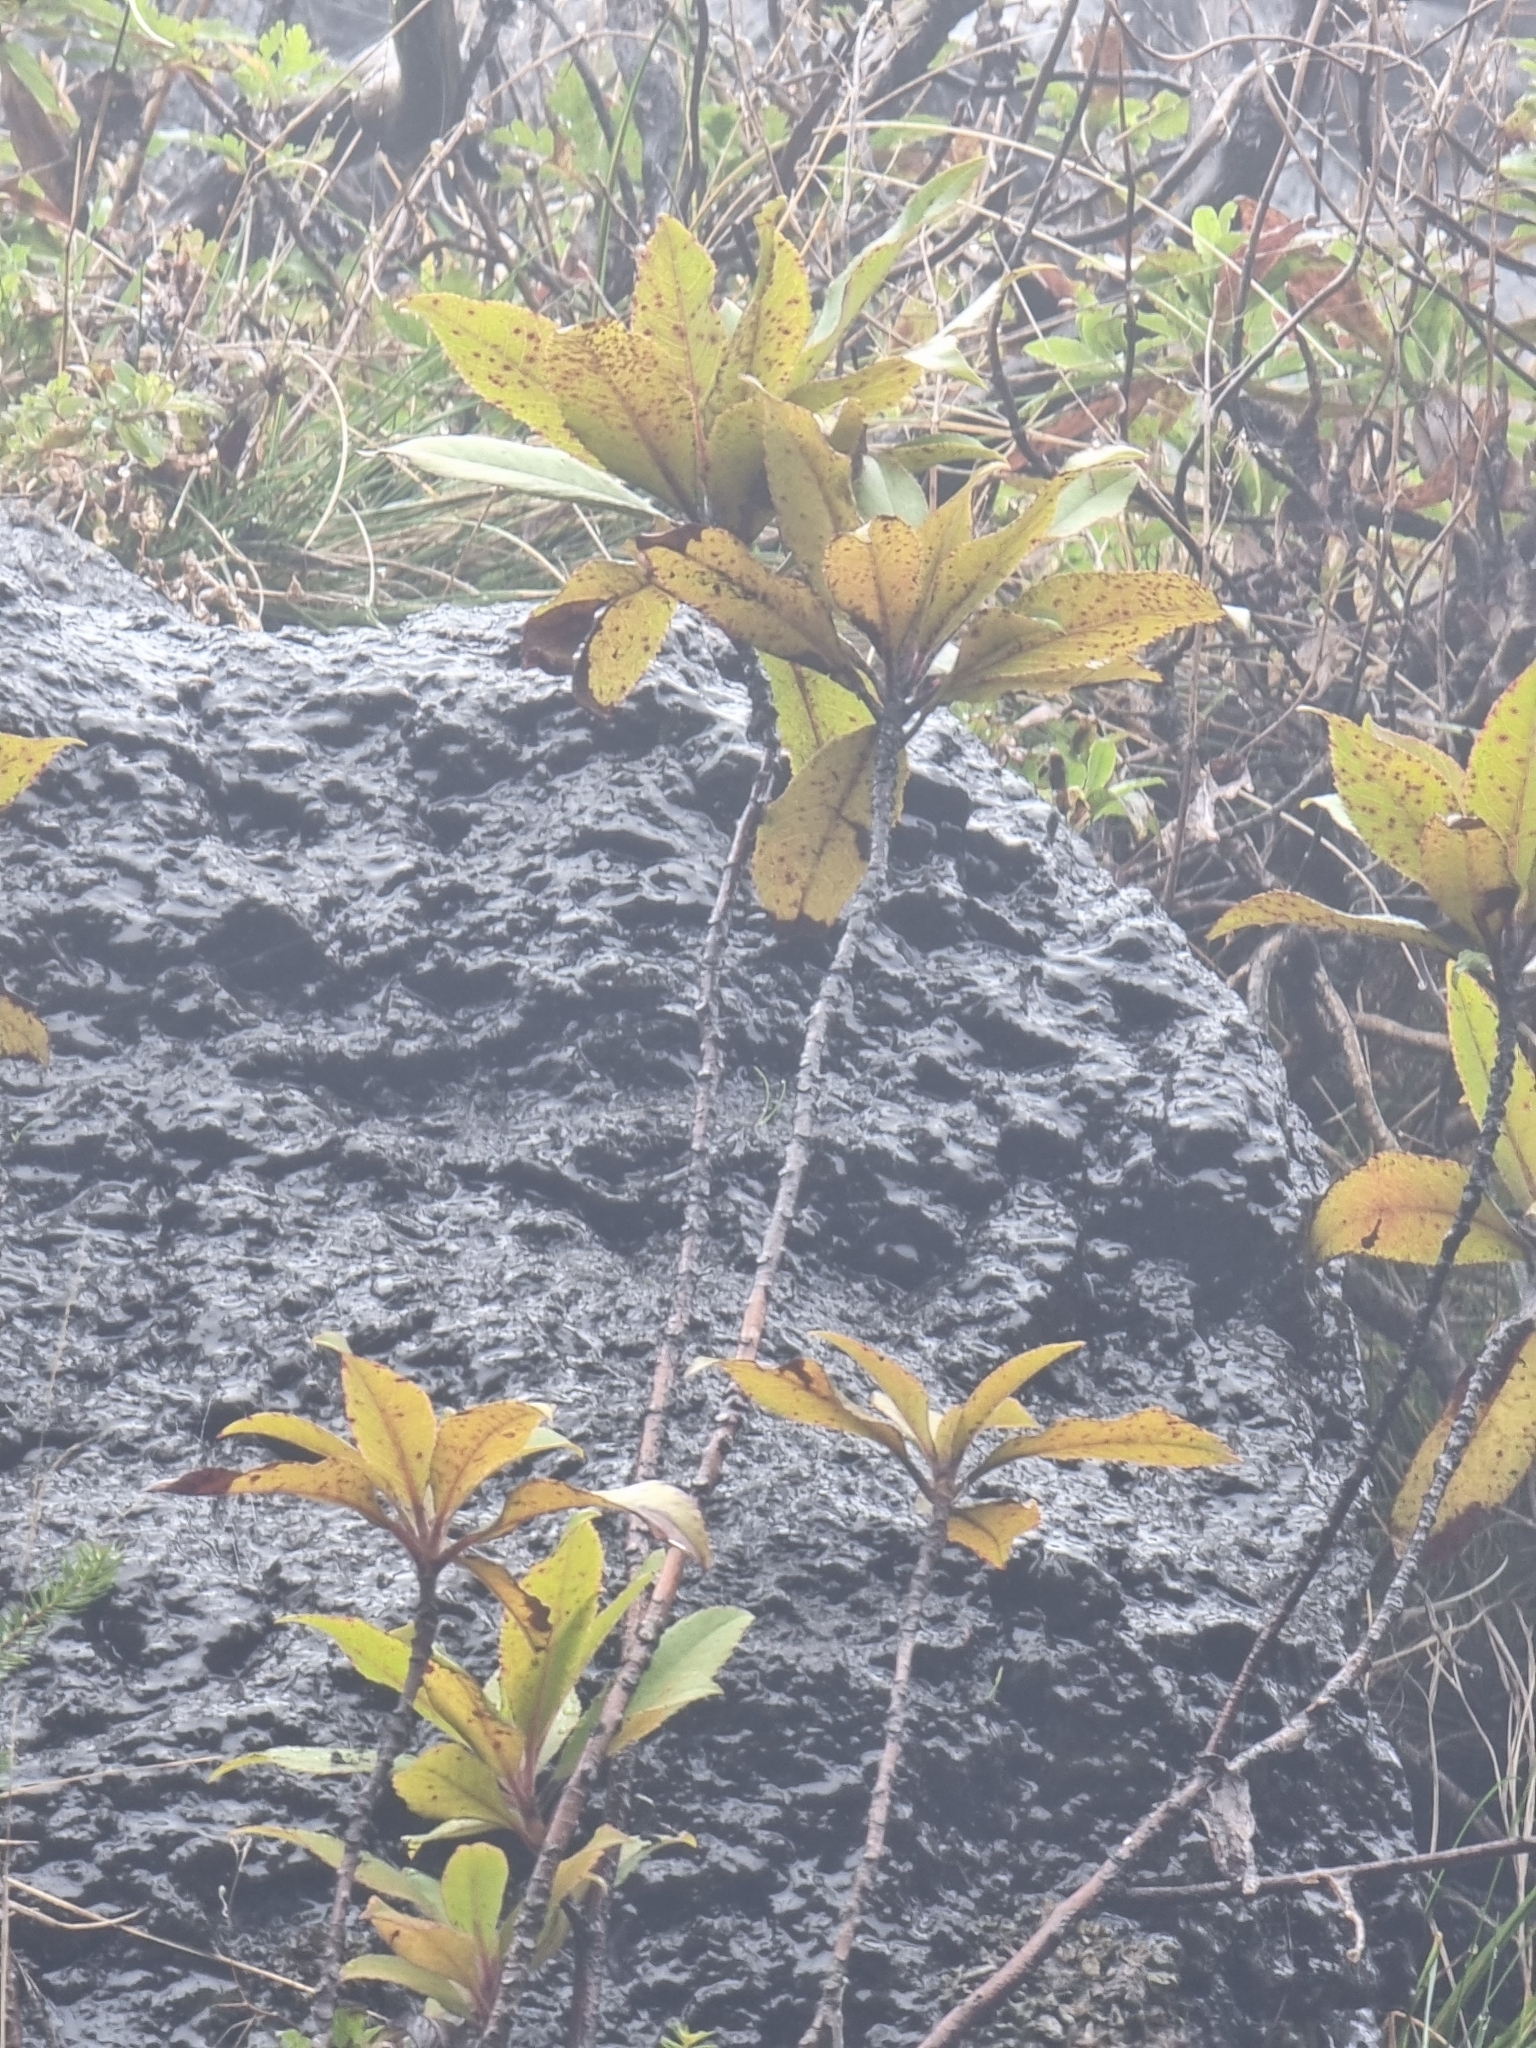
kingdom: Plantae
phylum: Tracheophyta
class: Magnoliopsida
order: Ericales
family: Clethraceae
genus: Clethra
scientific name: Clethra arborea
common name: Lily-of-the-valley-tree
